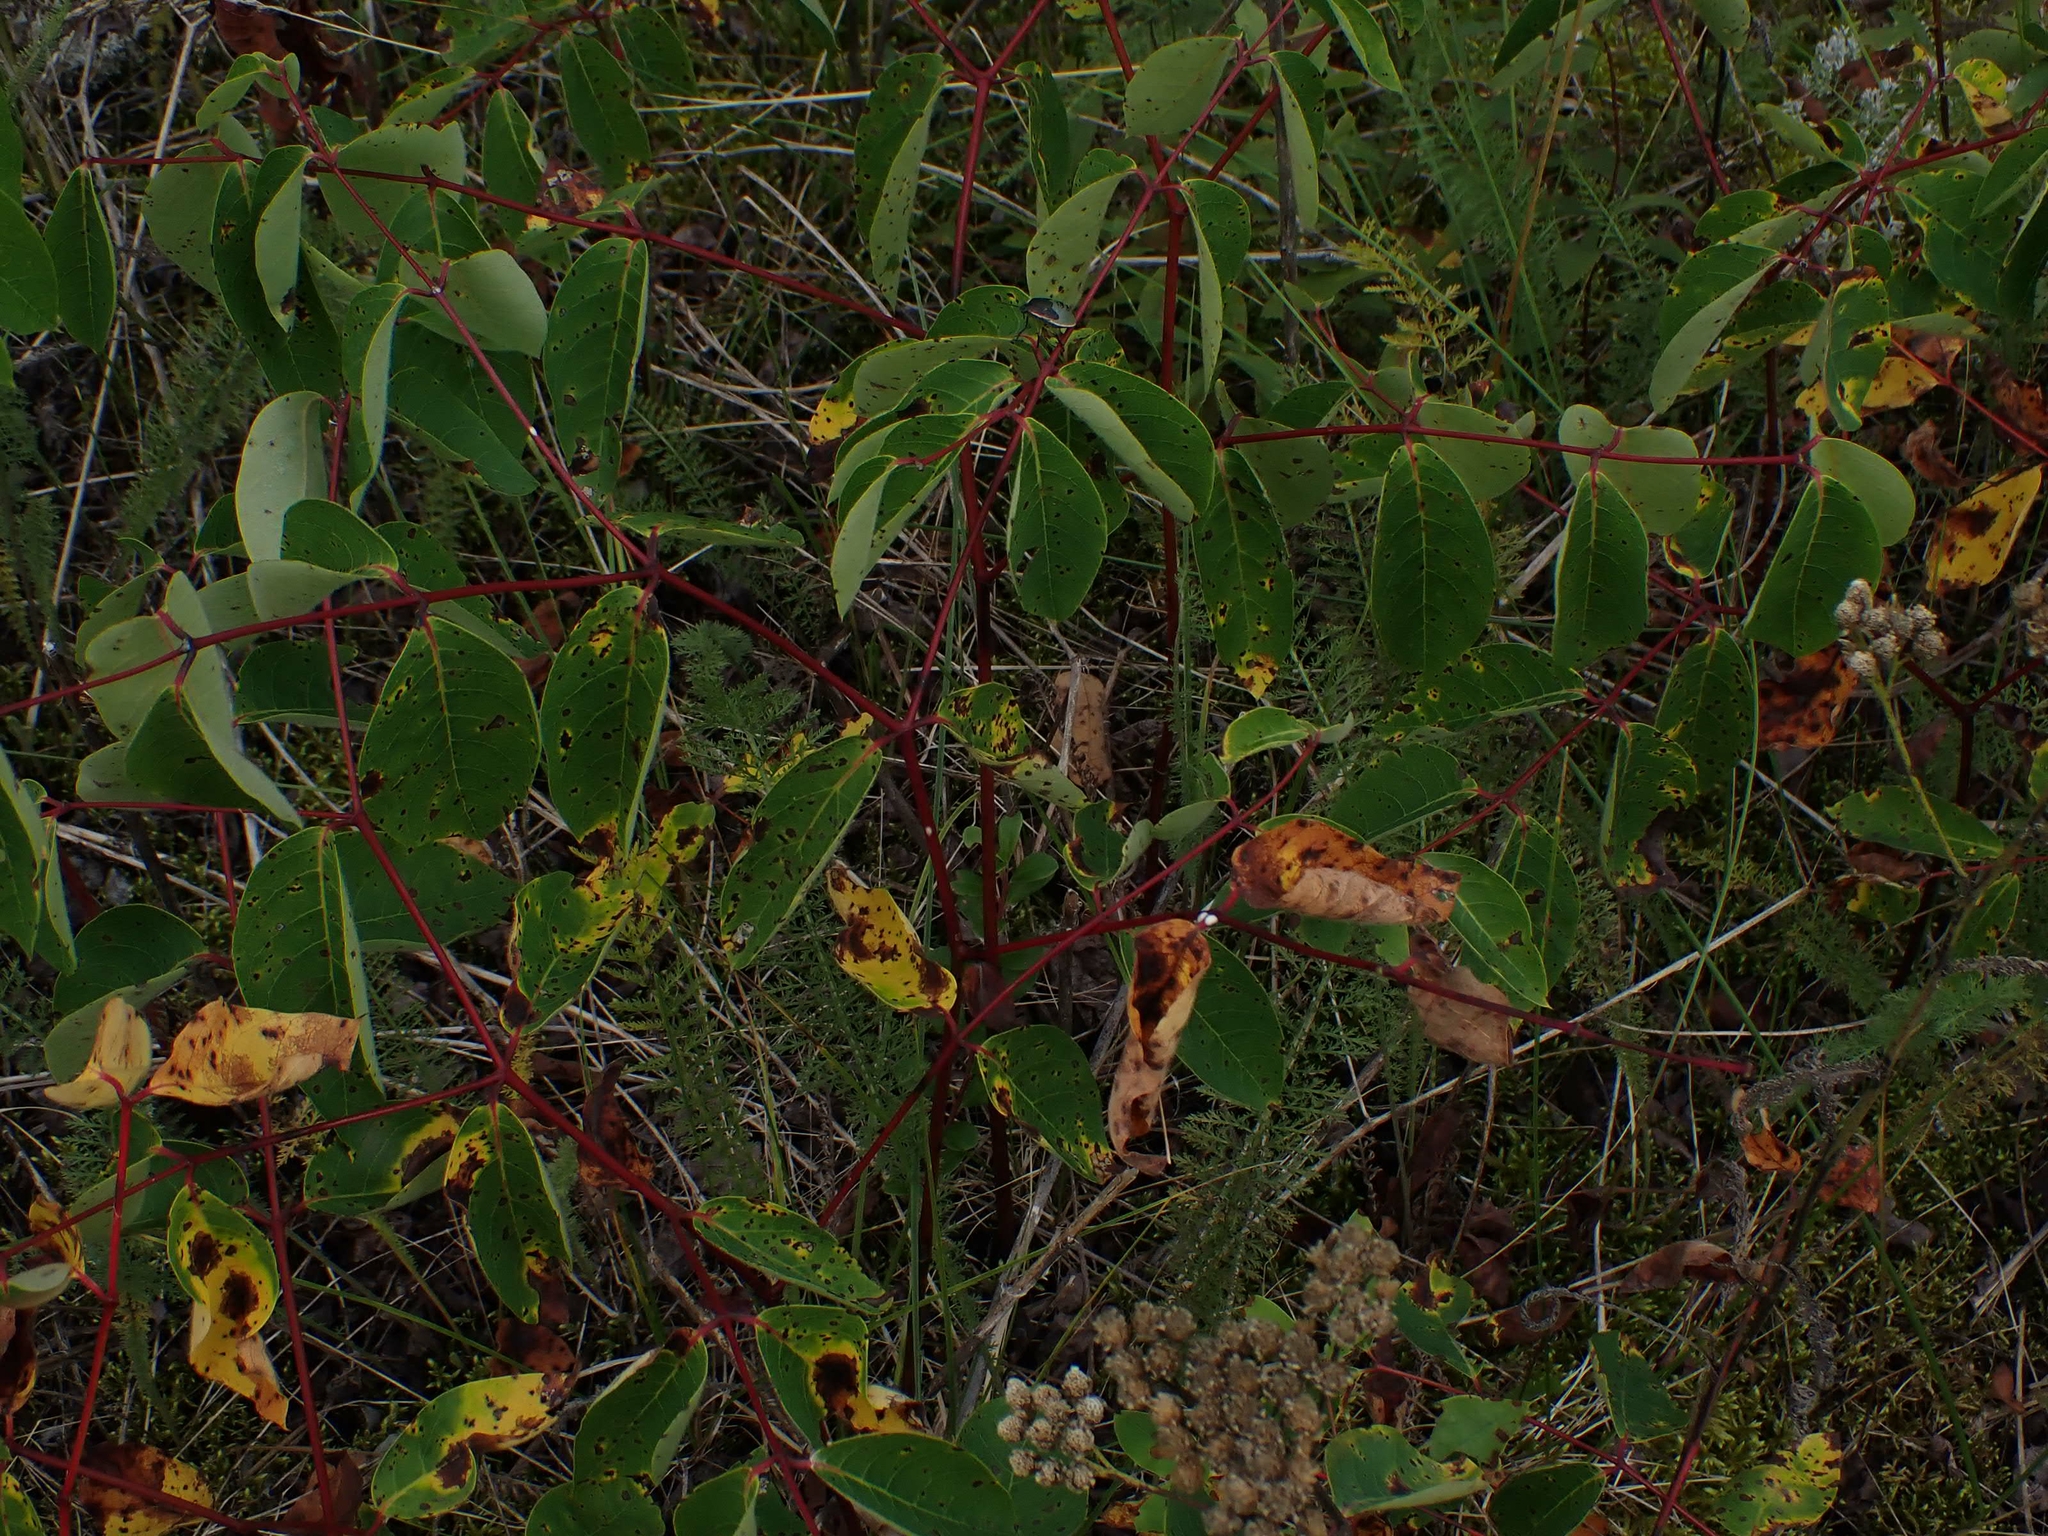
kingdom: Plantae
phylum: Tracheophyta
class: Magnoliopsida
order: Gentianales
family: Apocynaceae
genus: Apocynum
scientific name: Apocynum androsaemifolium
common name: Spreading dogbane
